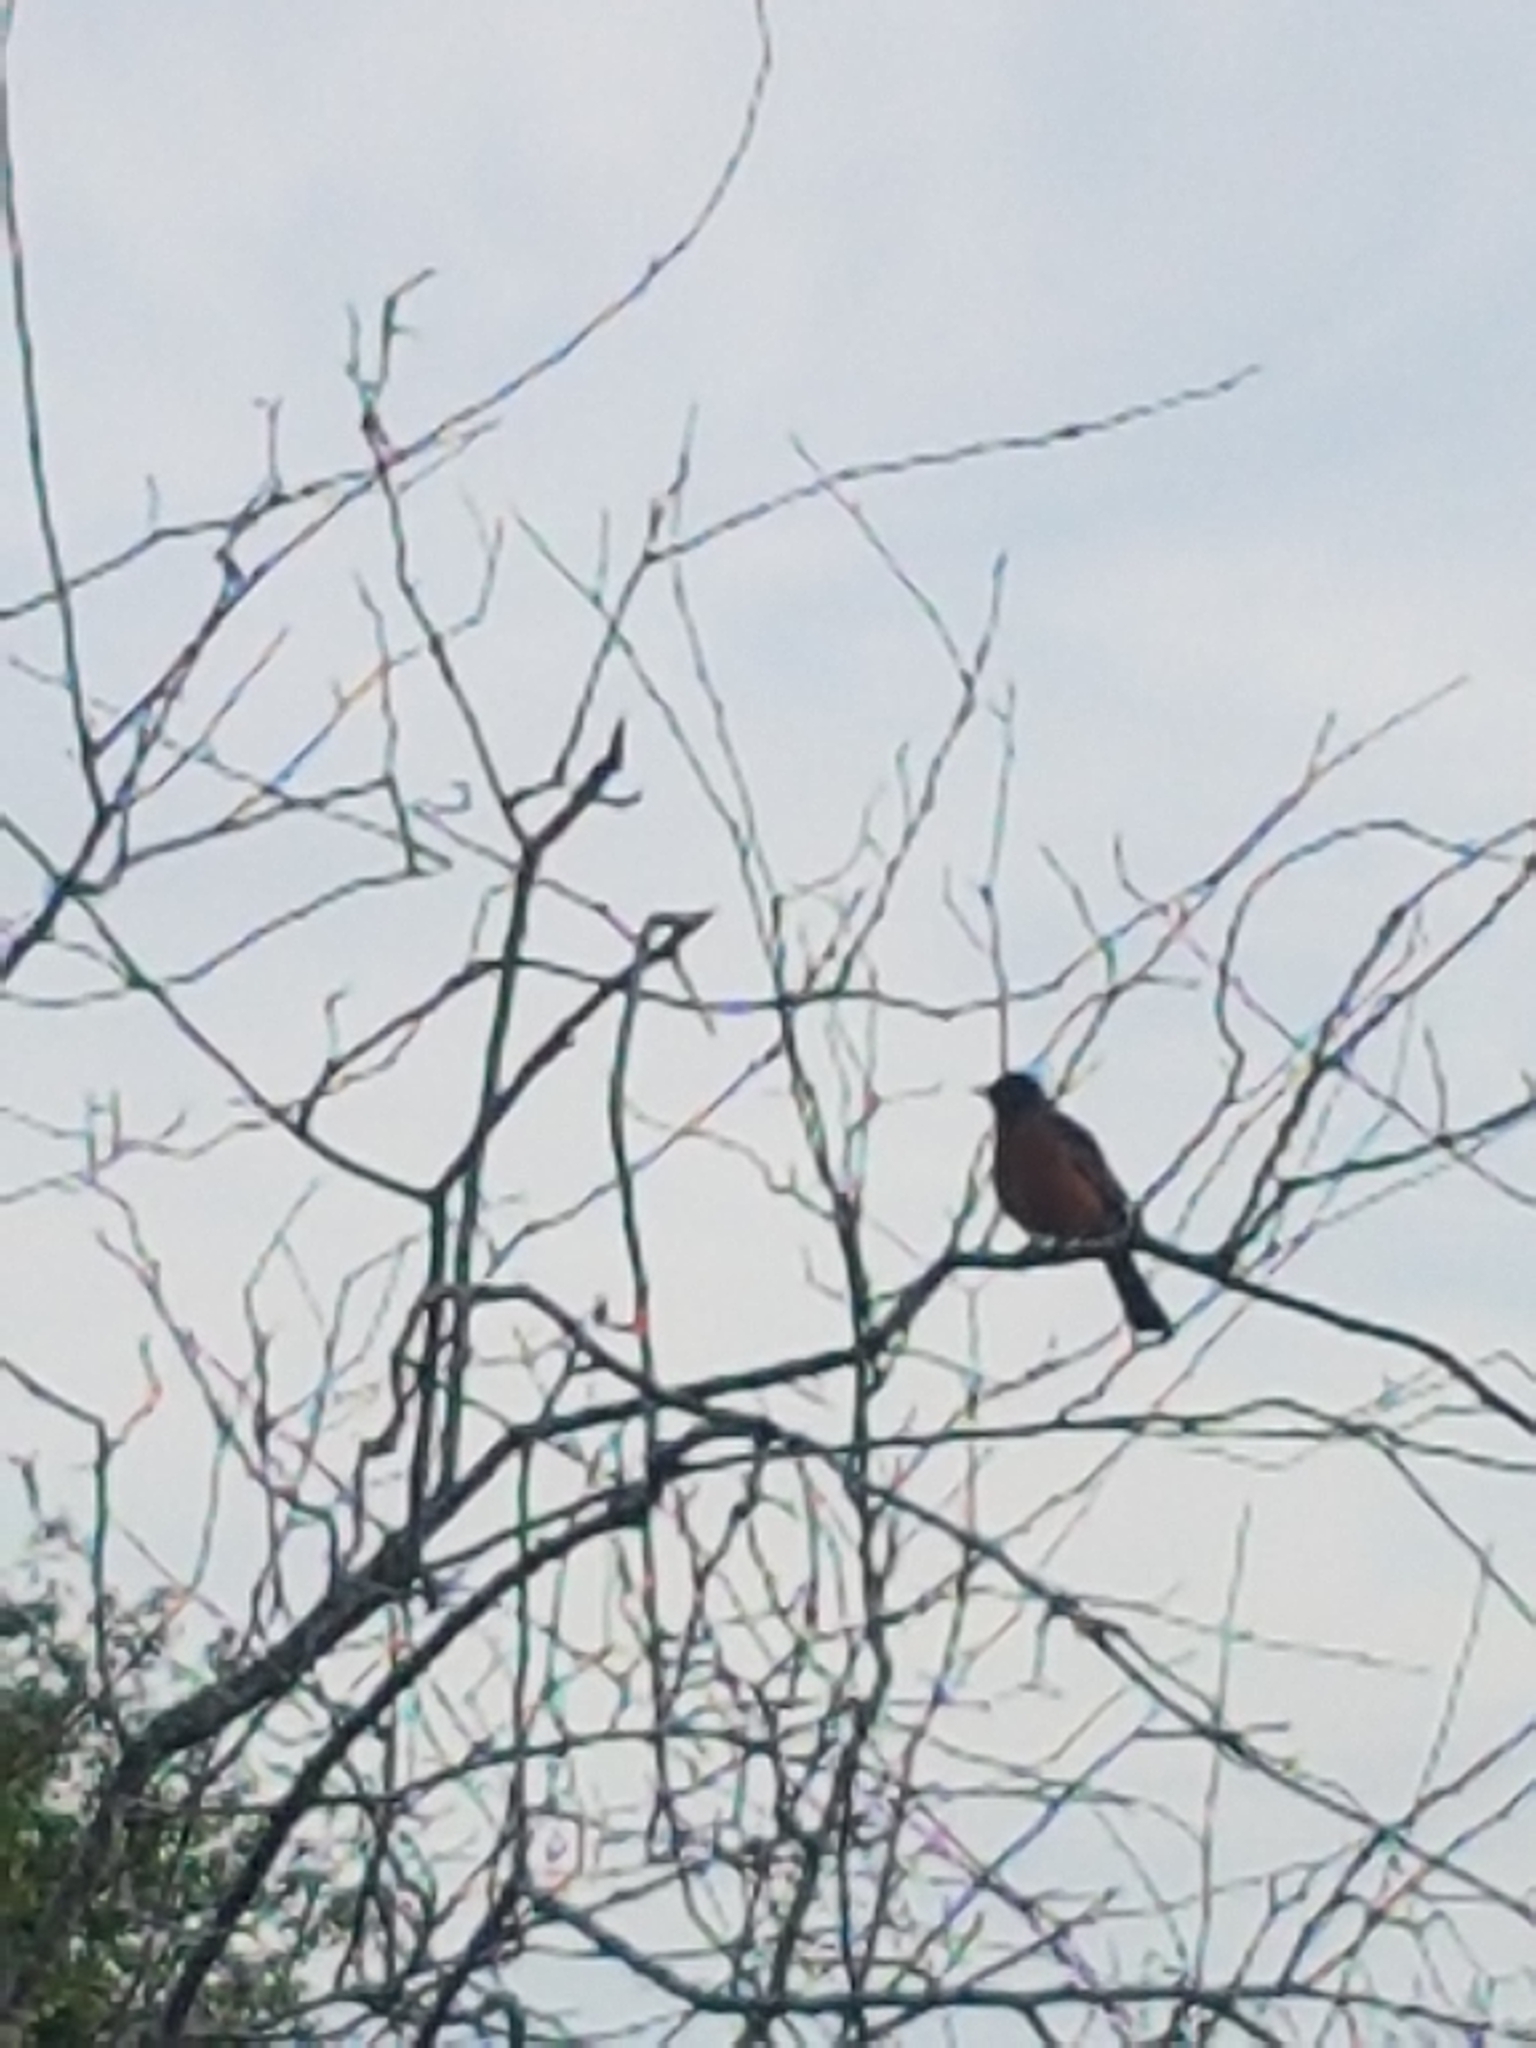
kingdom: Animalia
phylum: Chordata
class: Aves
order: Passeriformes
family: Turdidae
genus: Turdus
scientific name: Turdus migratorius
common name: American robin
